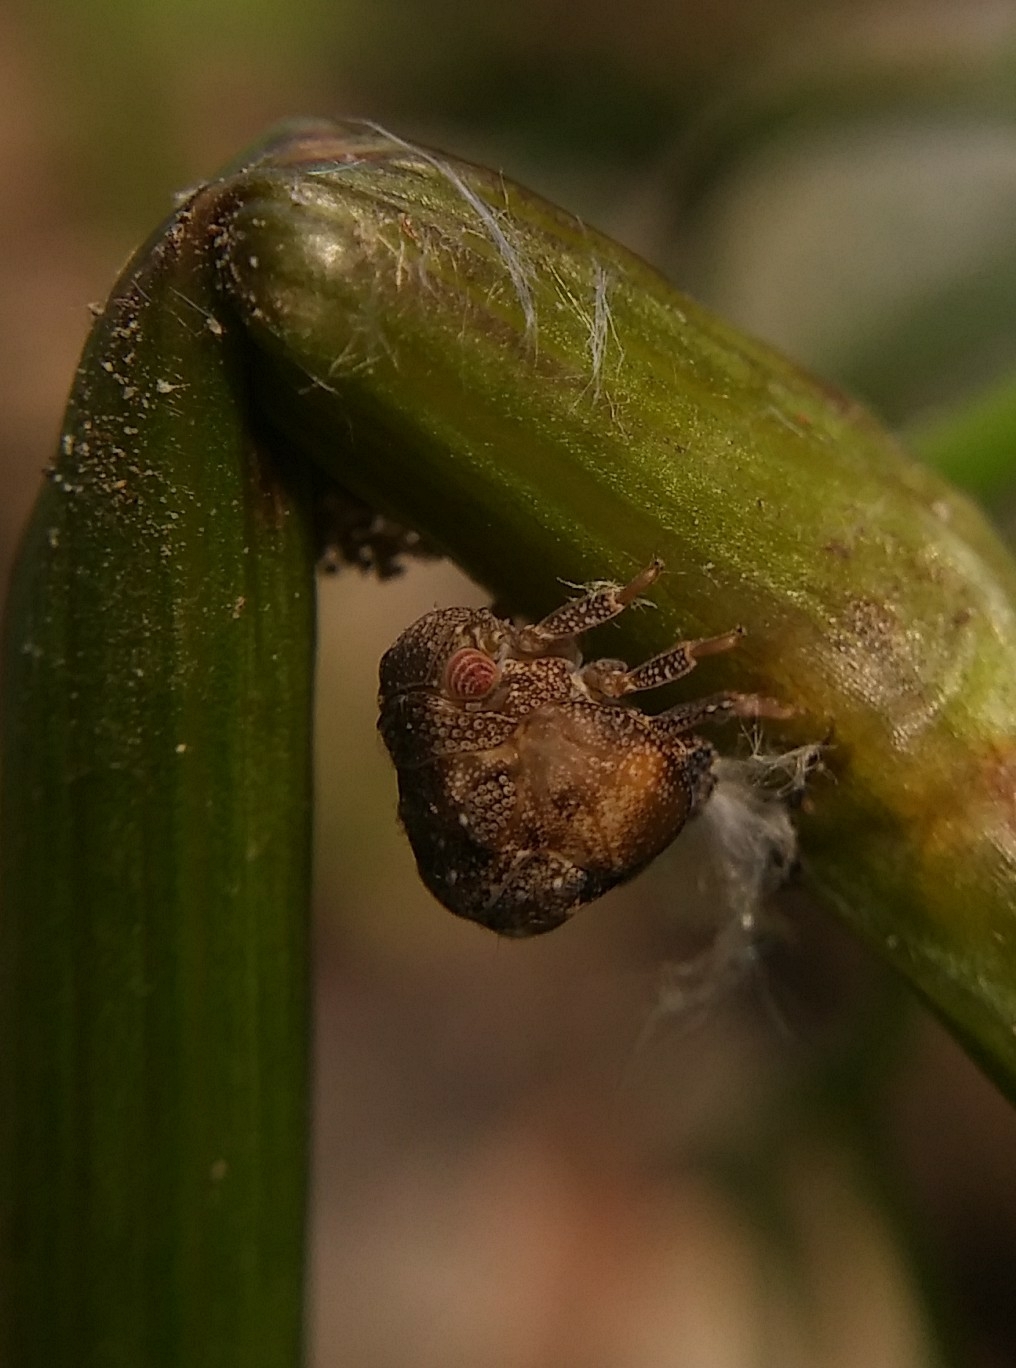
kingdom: Animalia
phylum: Arthropoda
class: Insecta
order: Hemiptera
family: Acanaloniidae
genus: Acanalonia
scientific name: Acanalonia bivittata
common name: Two-striped planthopper
